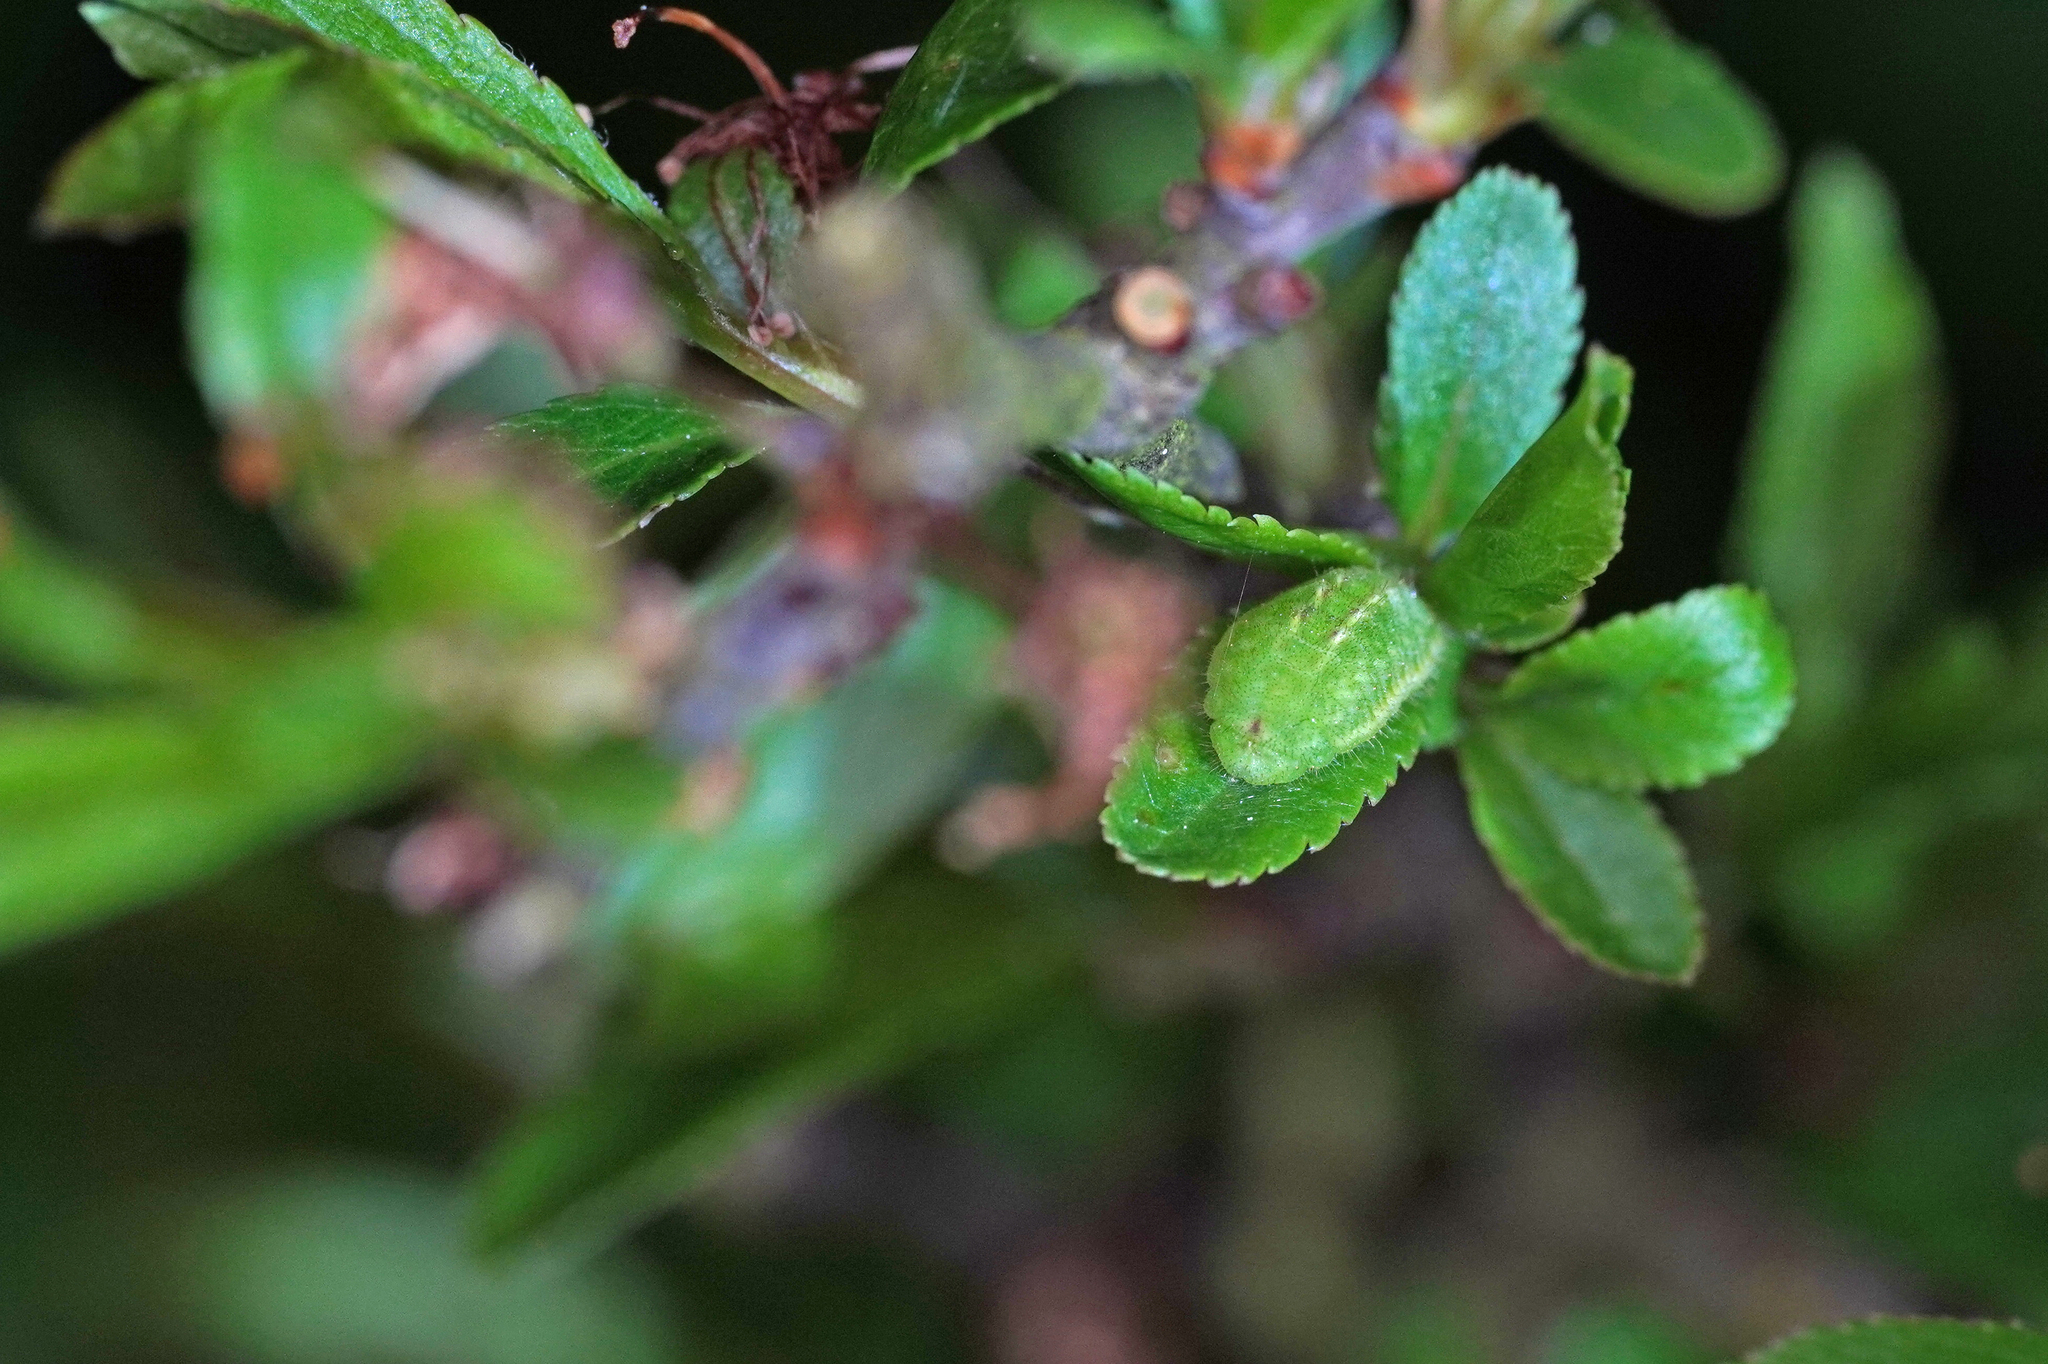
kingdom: Animalia
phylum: Arthropoda
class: Insecta
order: Lepidoptera
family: Lycaenidae
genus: Fixsenia
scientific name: Fixsenia pruni
